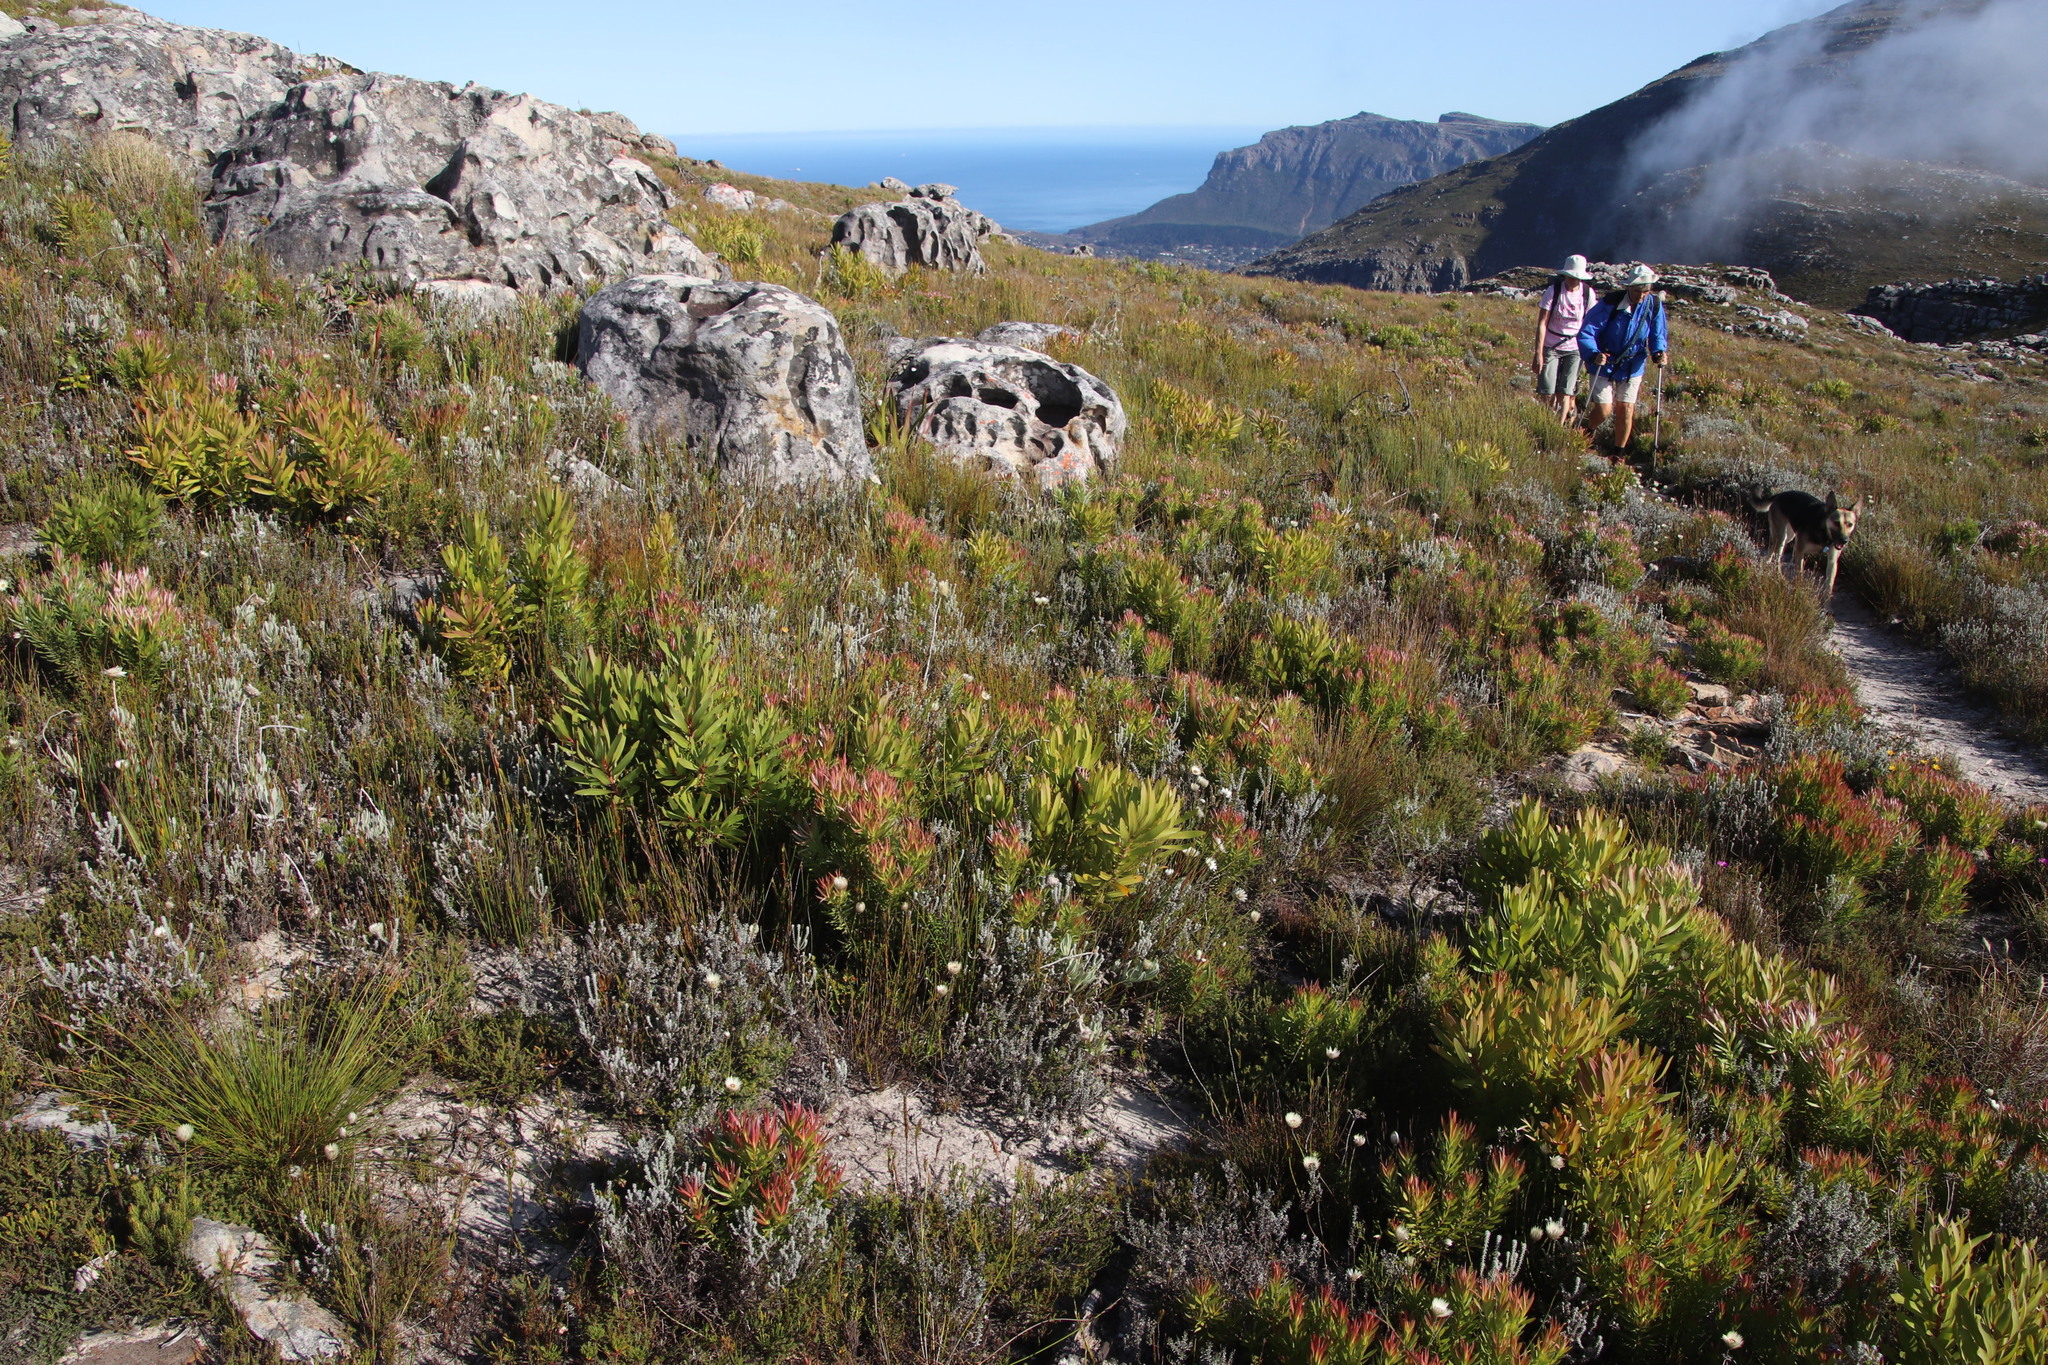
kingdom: Plantae
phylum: Tracheophyta
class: Magnoliopsida
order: Proteales
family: Proteaceae
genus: Protea
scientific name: Protea lepidocarpodendron
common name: Black-bearded protea
